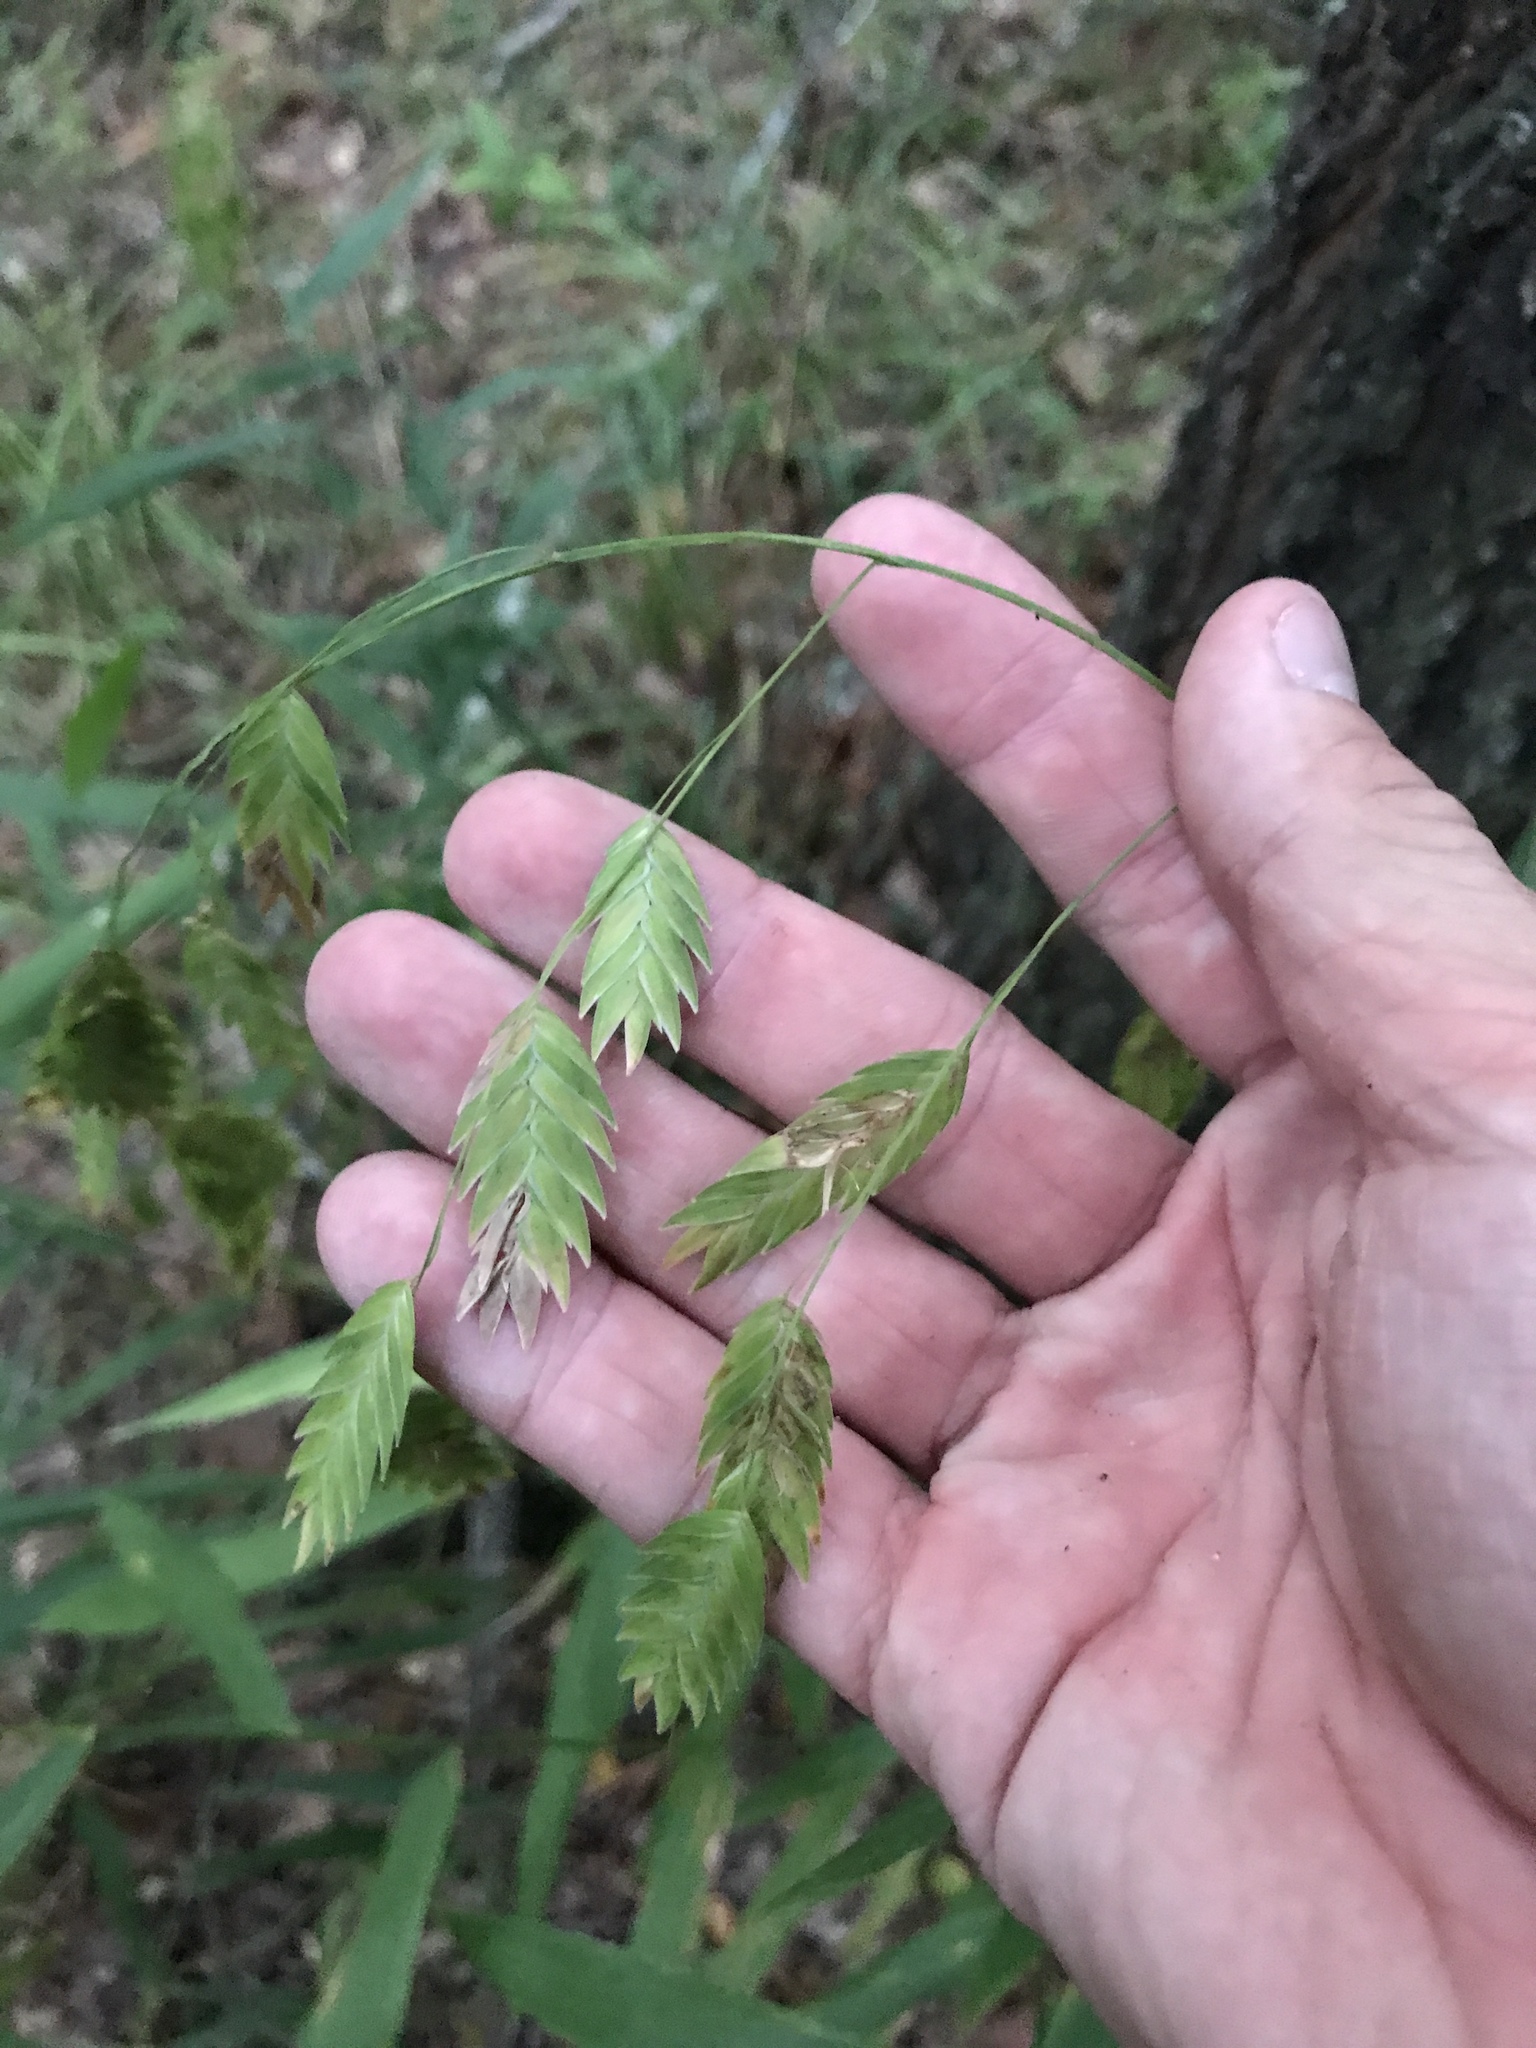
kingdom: Plantae
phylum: Tracheophyta
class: Liliopsida
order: Poales
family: Poaceae
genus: Chasmanthium
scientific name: Chasmanthium latifolium
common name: Broad-leaved chasmanthium
